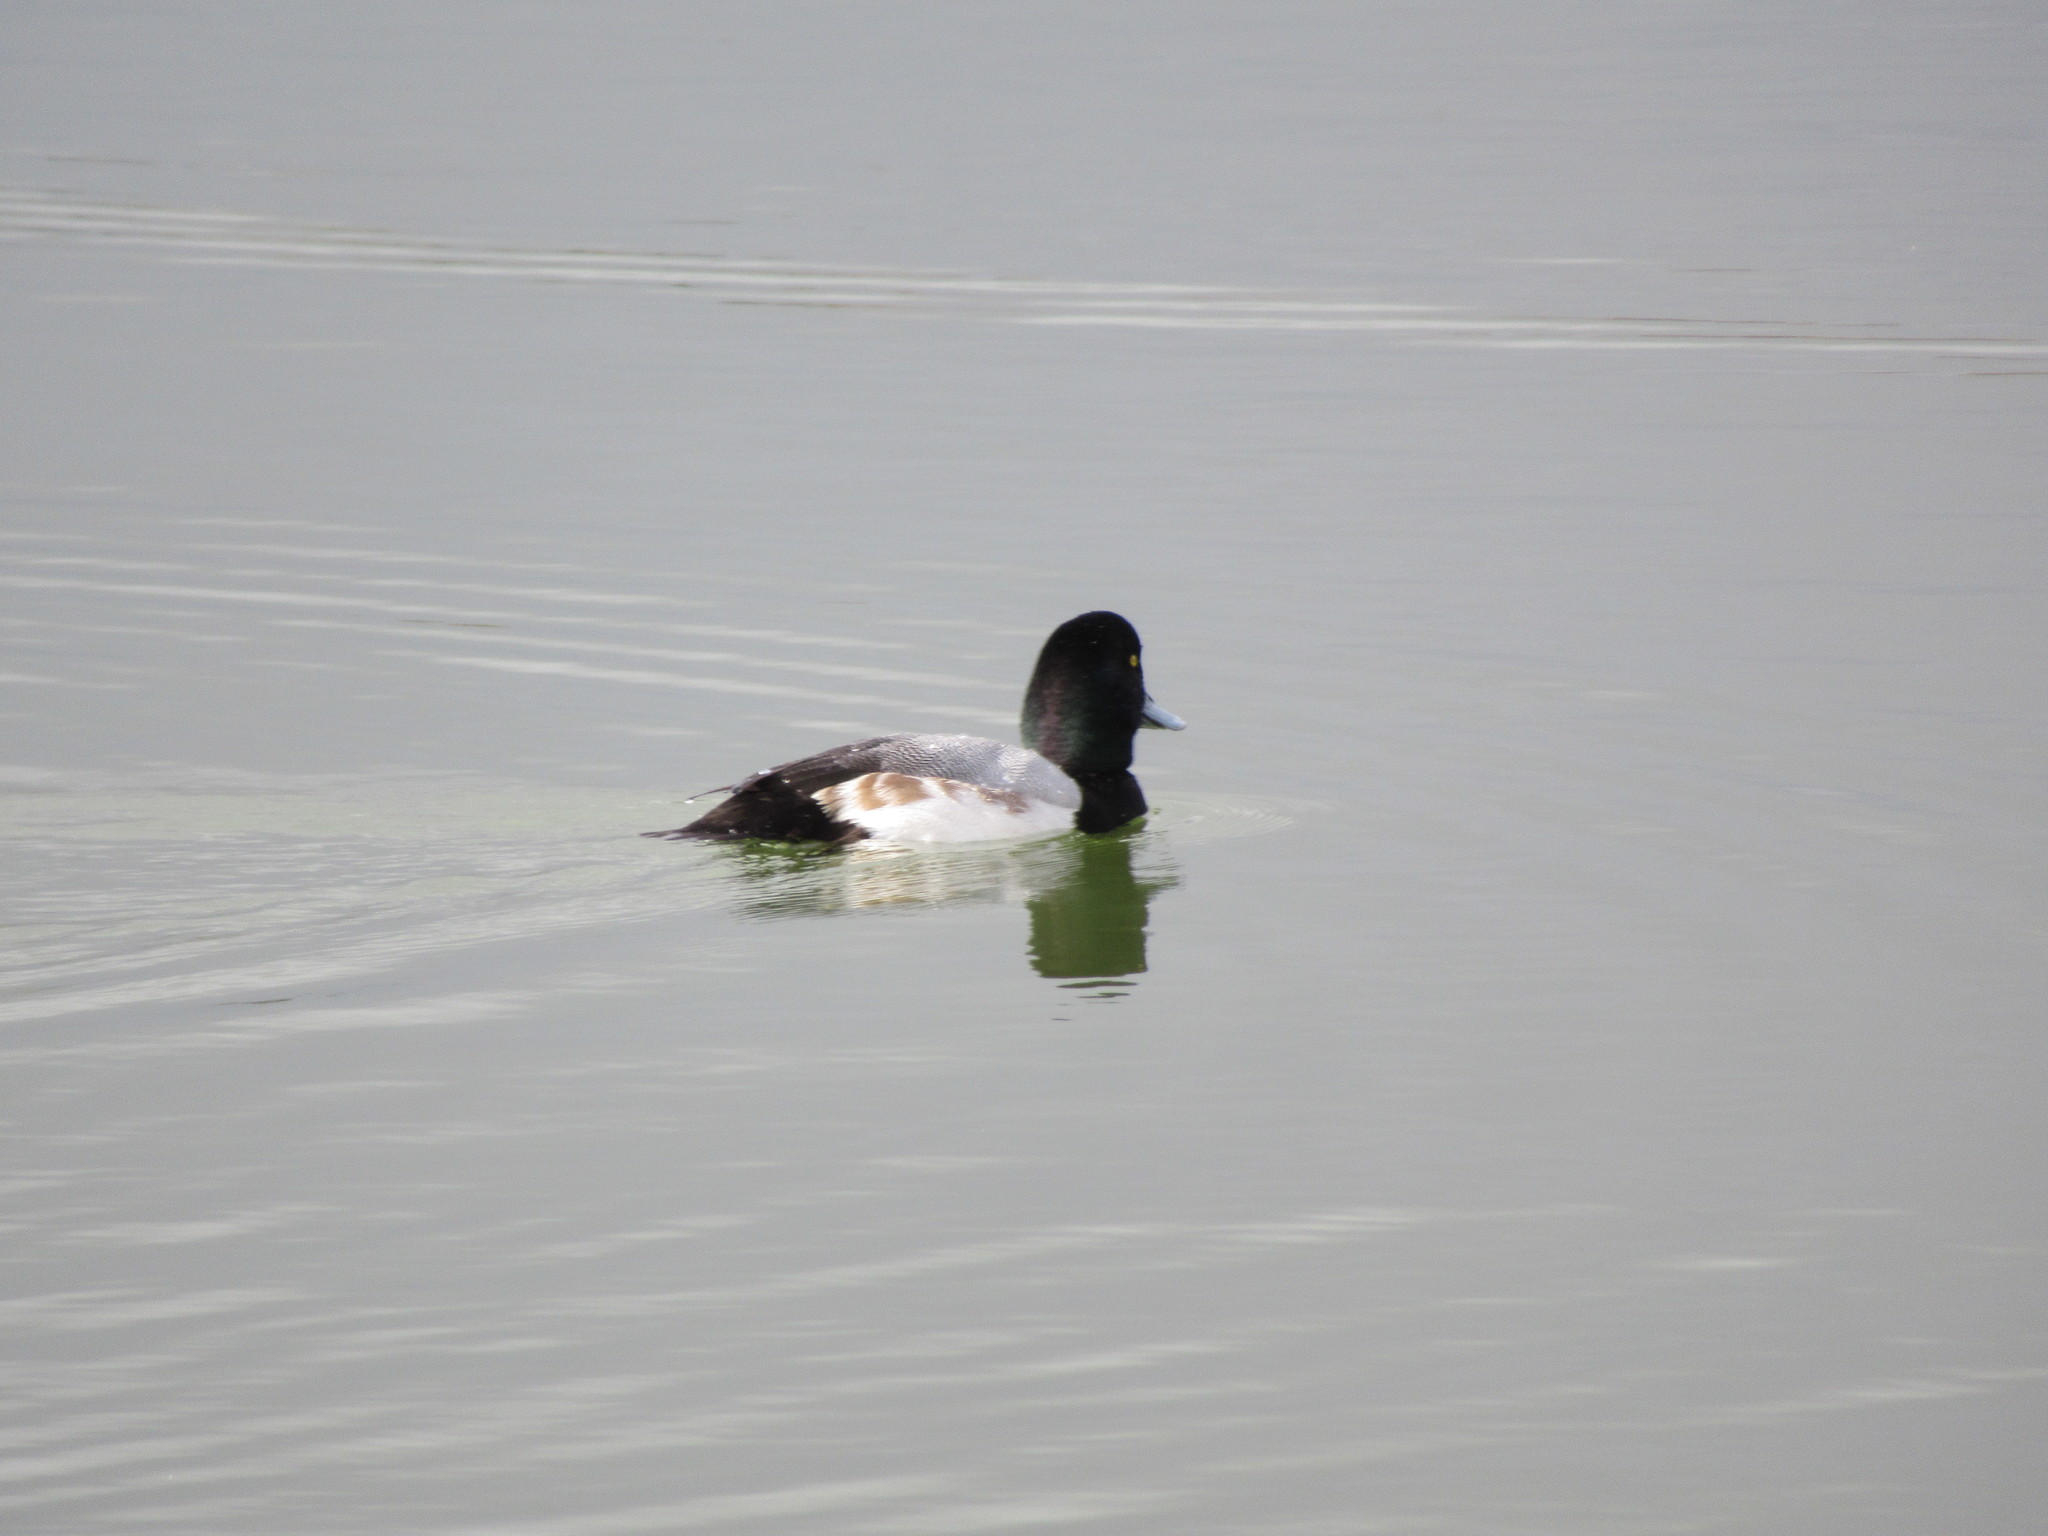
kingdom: Animalia
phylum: Chordata
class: Aves
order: Anseriformes
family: Anatidae
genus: Aythya
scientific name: Aythya marila
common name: Greater scaup
